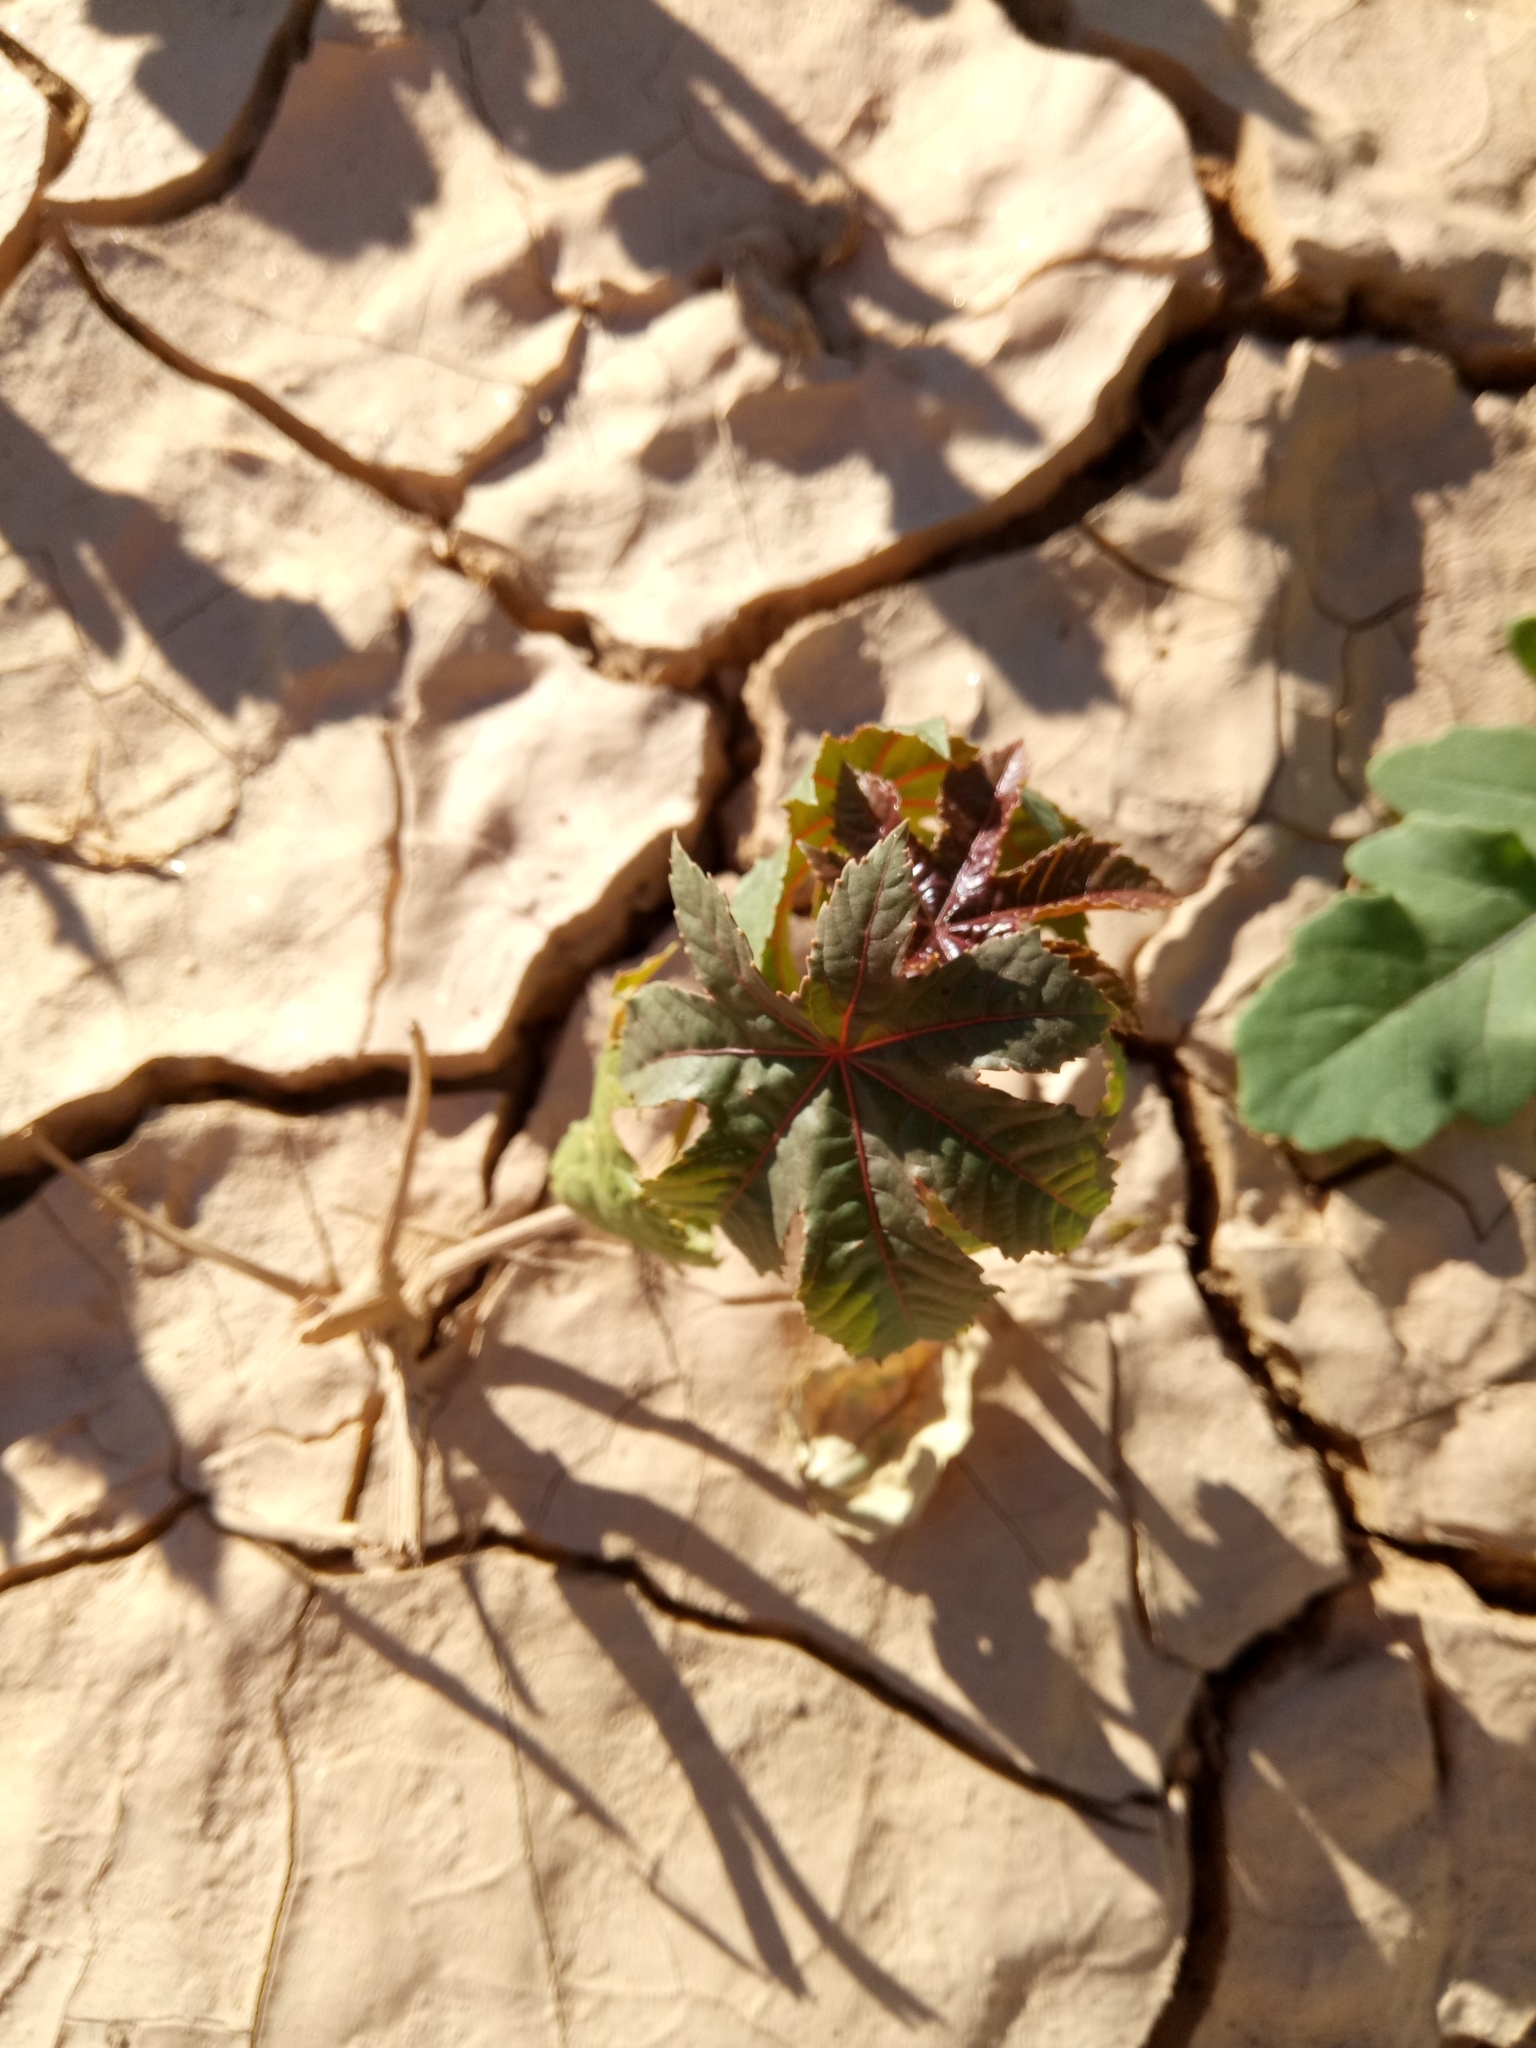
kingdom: Plantae
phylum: Tracheophyta
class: Magnoliopsida
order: Malpighiales
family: Euphorbiaceae
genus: Ricinus
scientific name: Ricinus communis
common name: Castor-oil-plant
